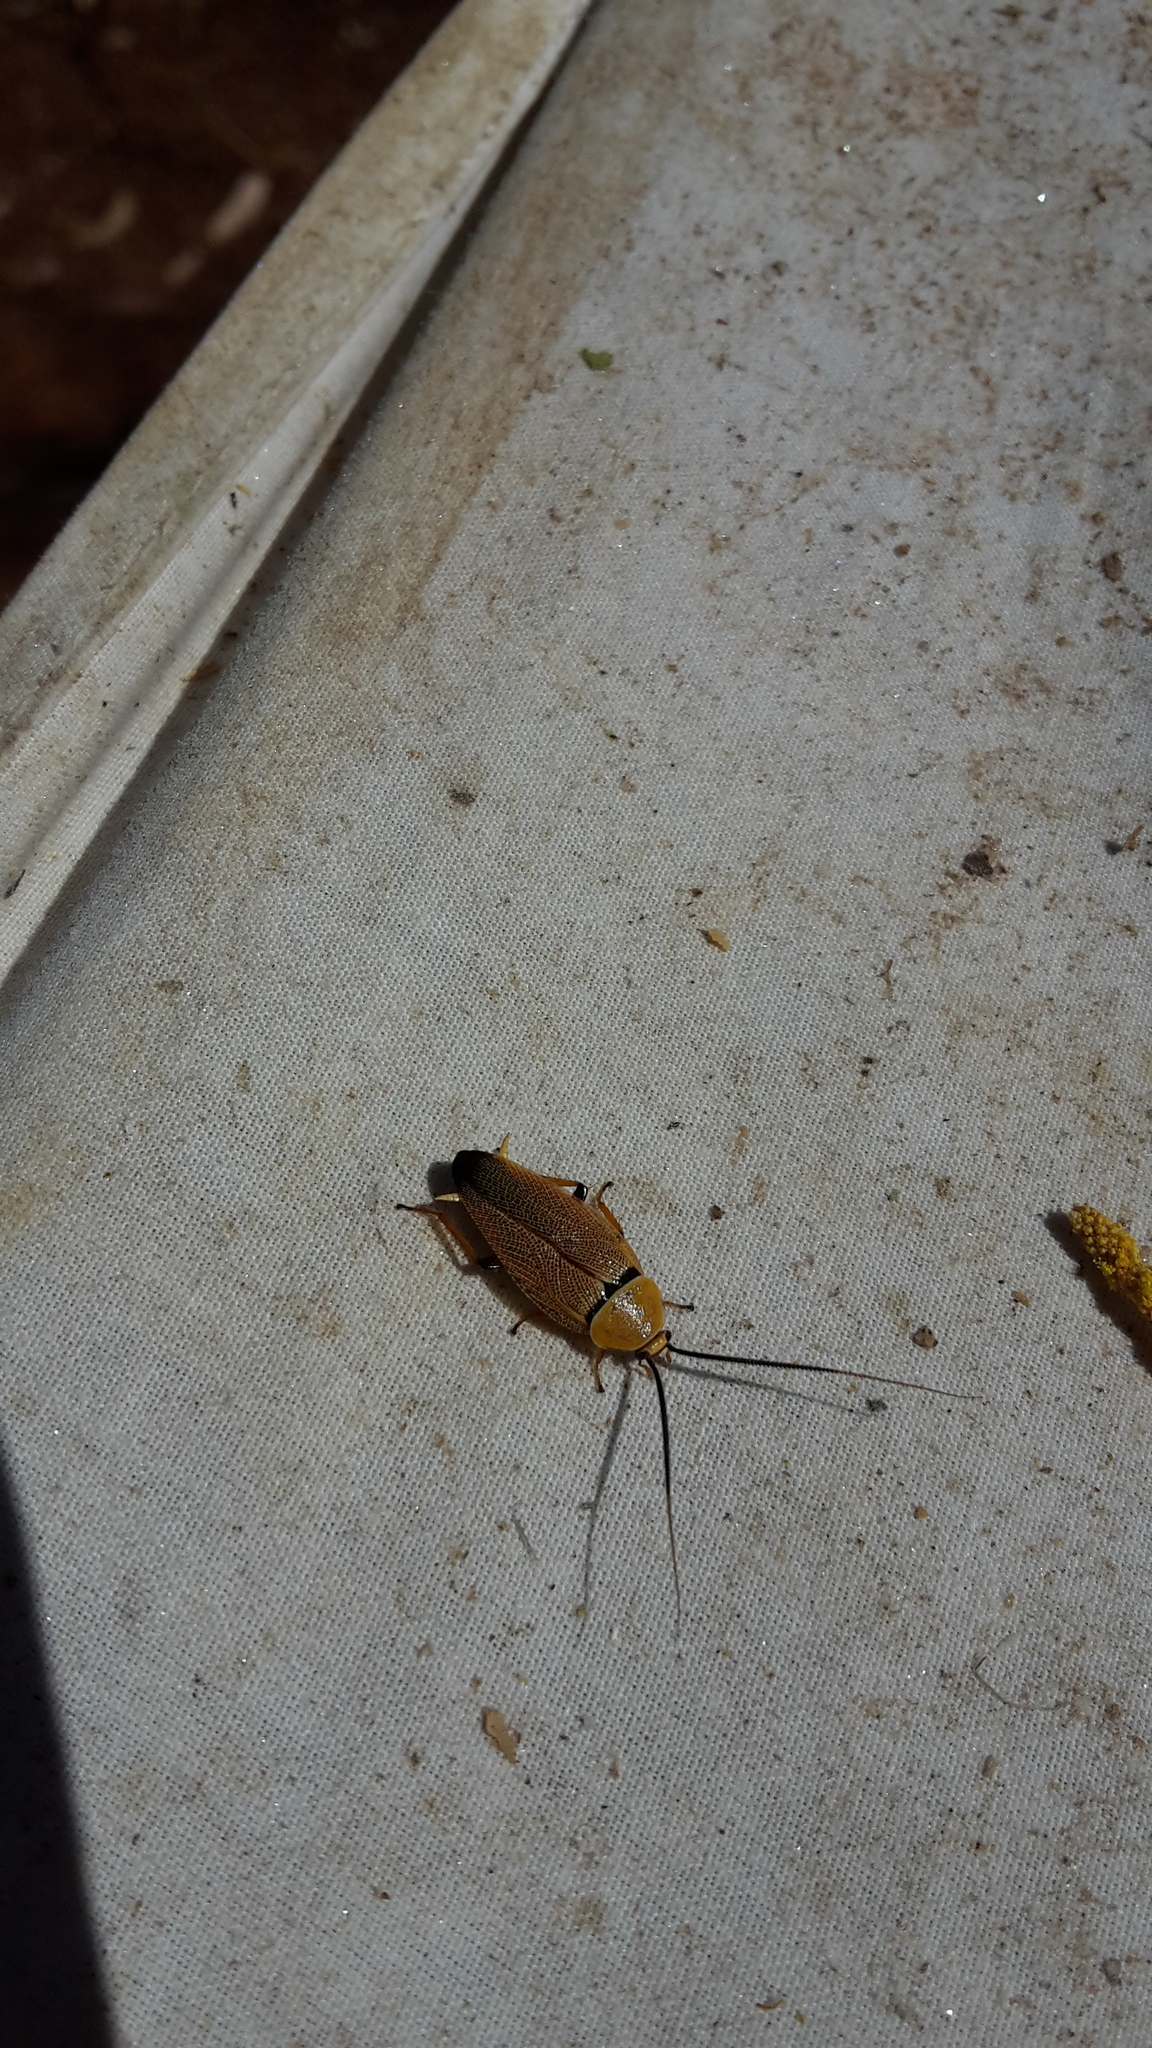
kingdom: Animalia
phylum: Arthropoda
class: Insecta
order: Blattodea
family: Ectobiidae
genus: Ellipsidion
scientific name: Ellipsidion humerale
